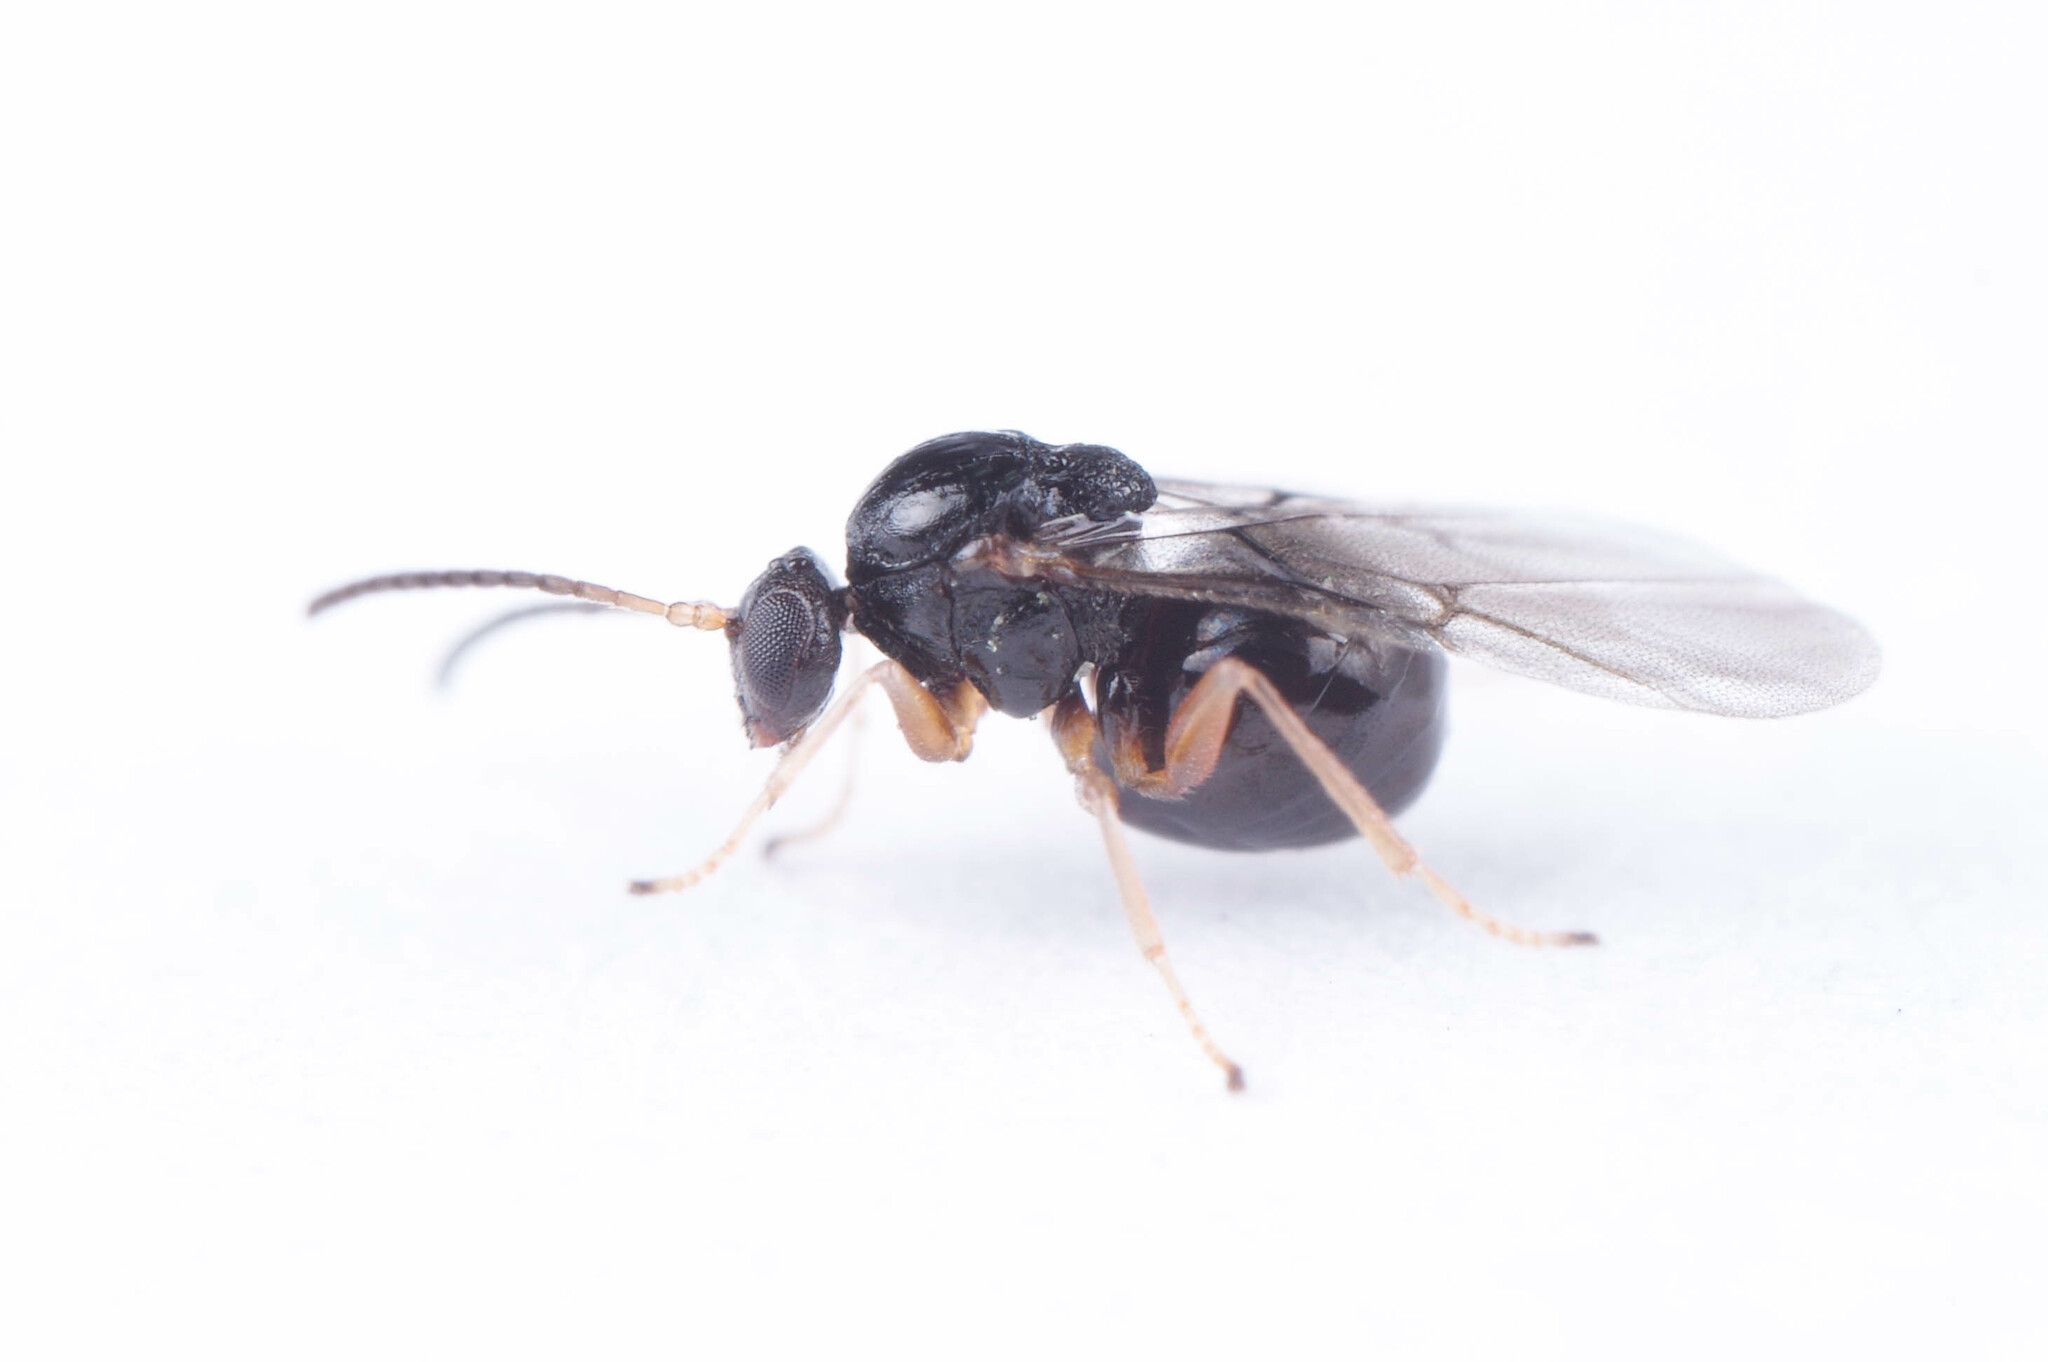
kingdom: Animalia
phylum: Arthropoda
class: Insecta
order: Hymenoptera
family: Cynipidae
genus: Dryocosmus
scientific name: Dryocosmus quercuspalustris
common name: Succulent oak gall wasp
